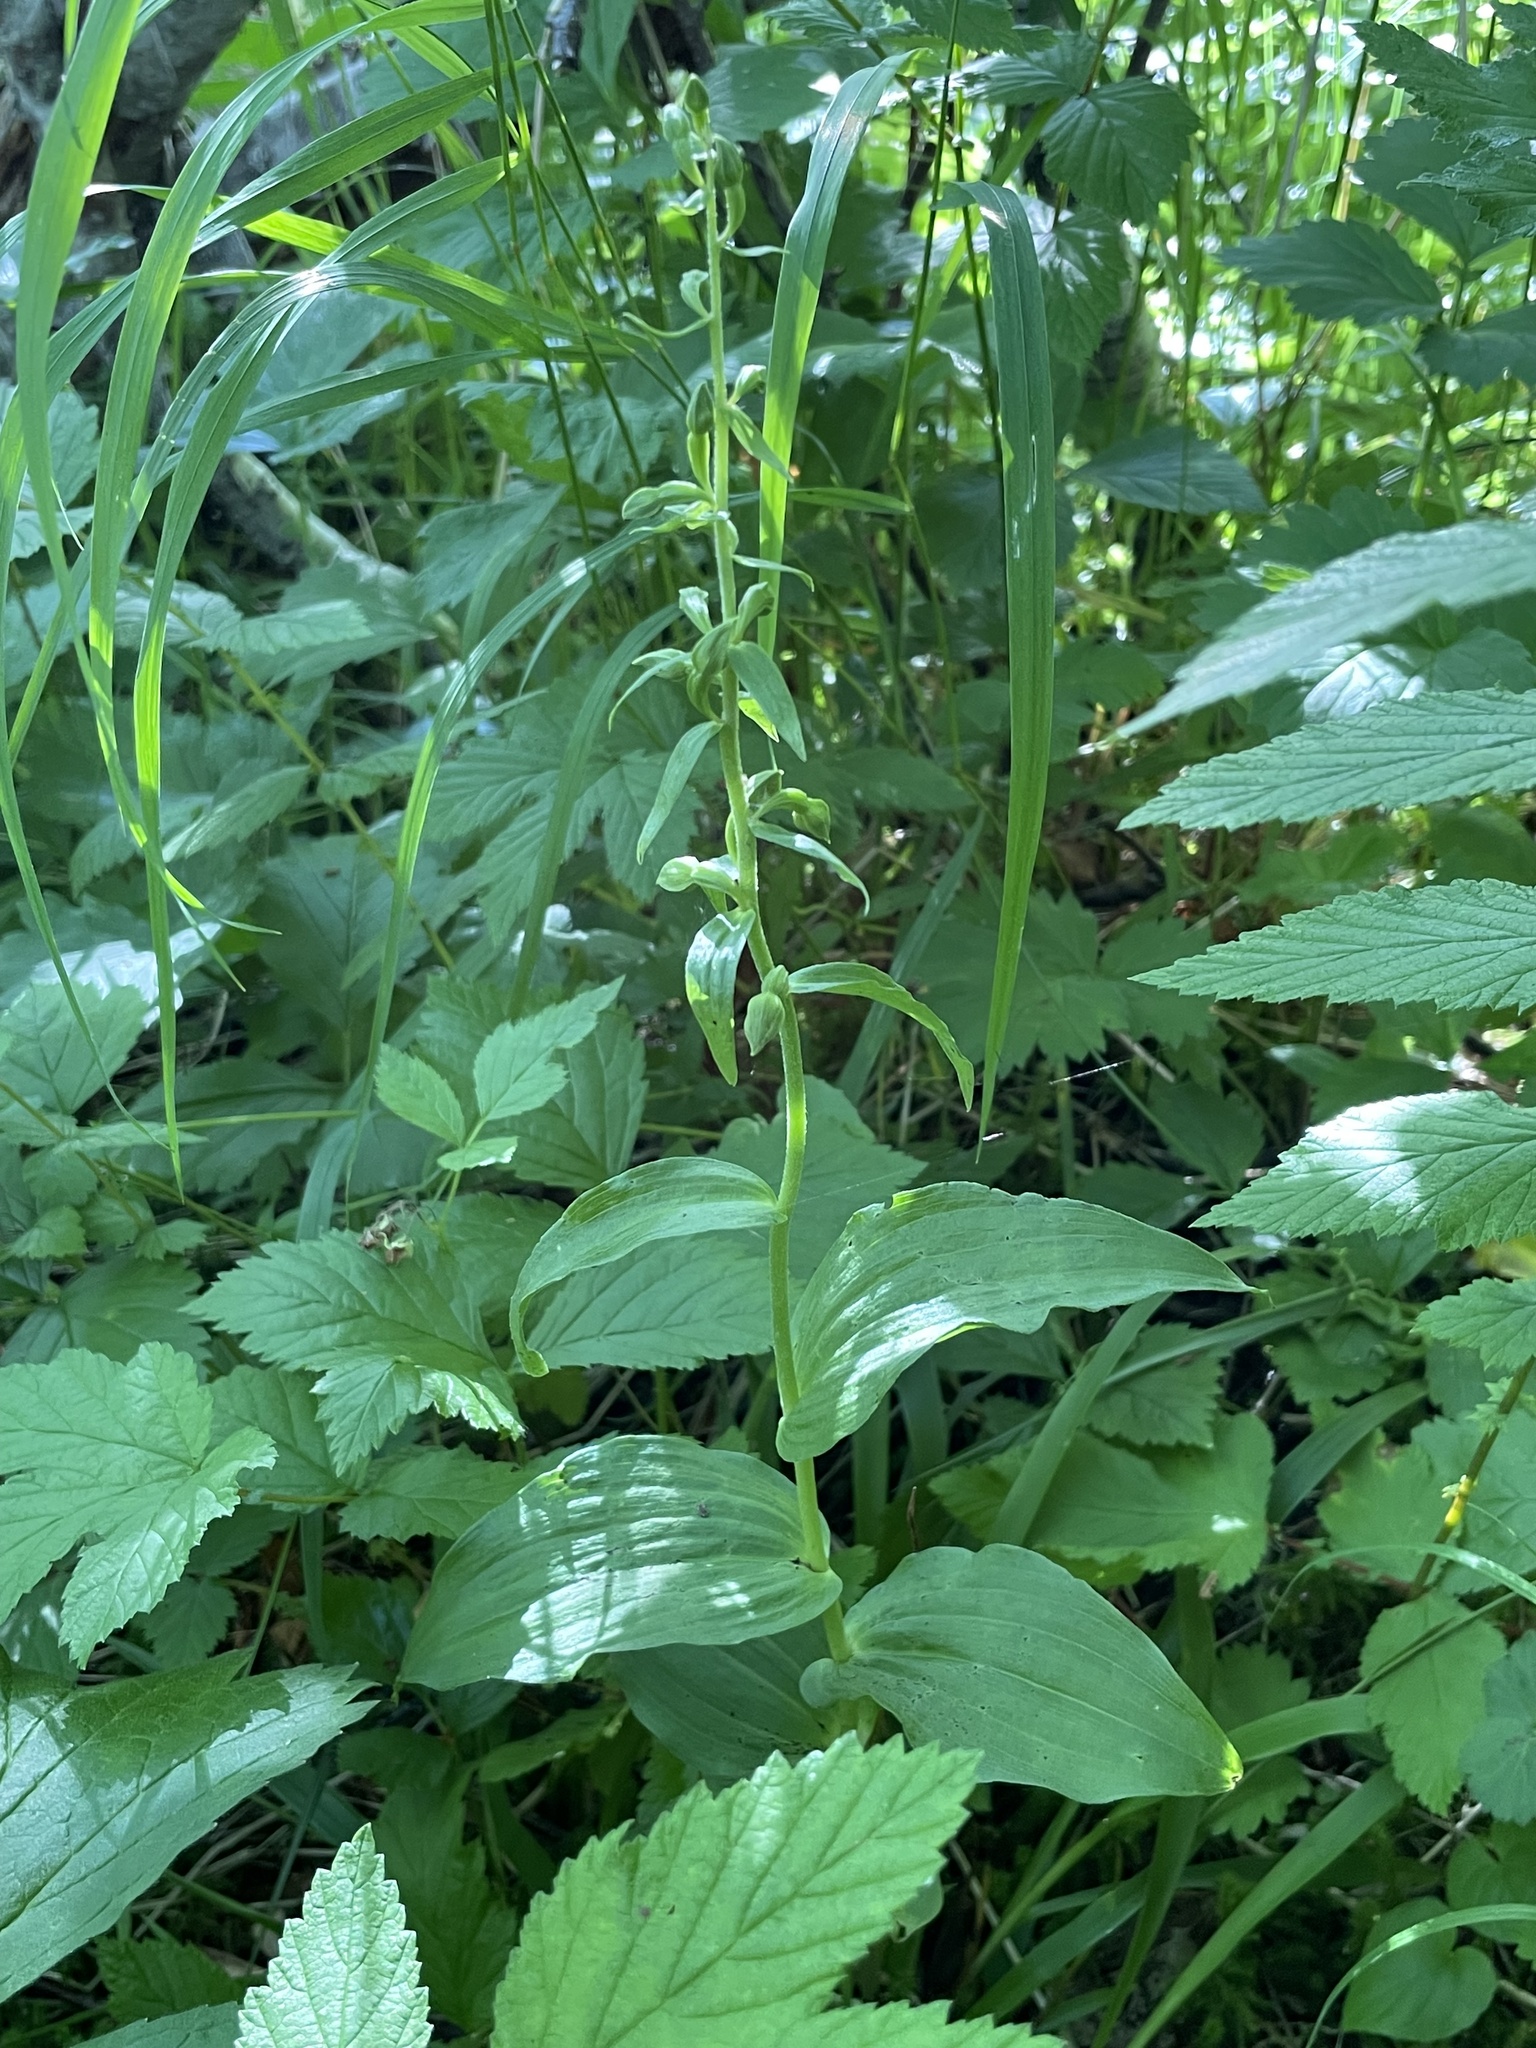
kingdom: Plantae
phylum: Tracheophyta
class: Liliopsida
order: Asparagales
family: Orchidaceae
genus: Epipactis
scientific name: Epipactis helleborine
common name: Broad-leaved helleborine
